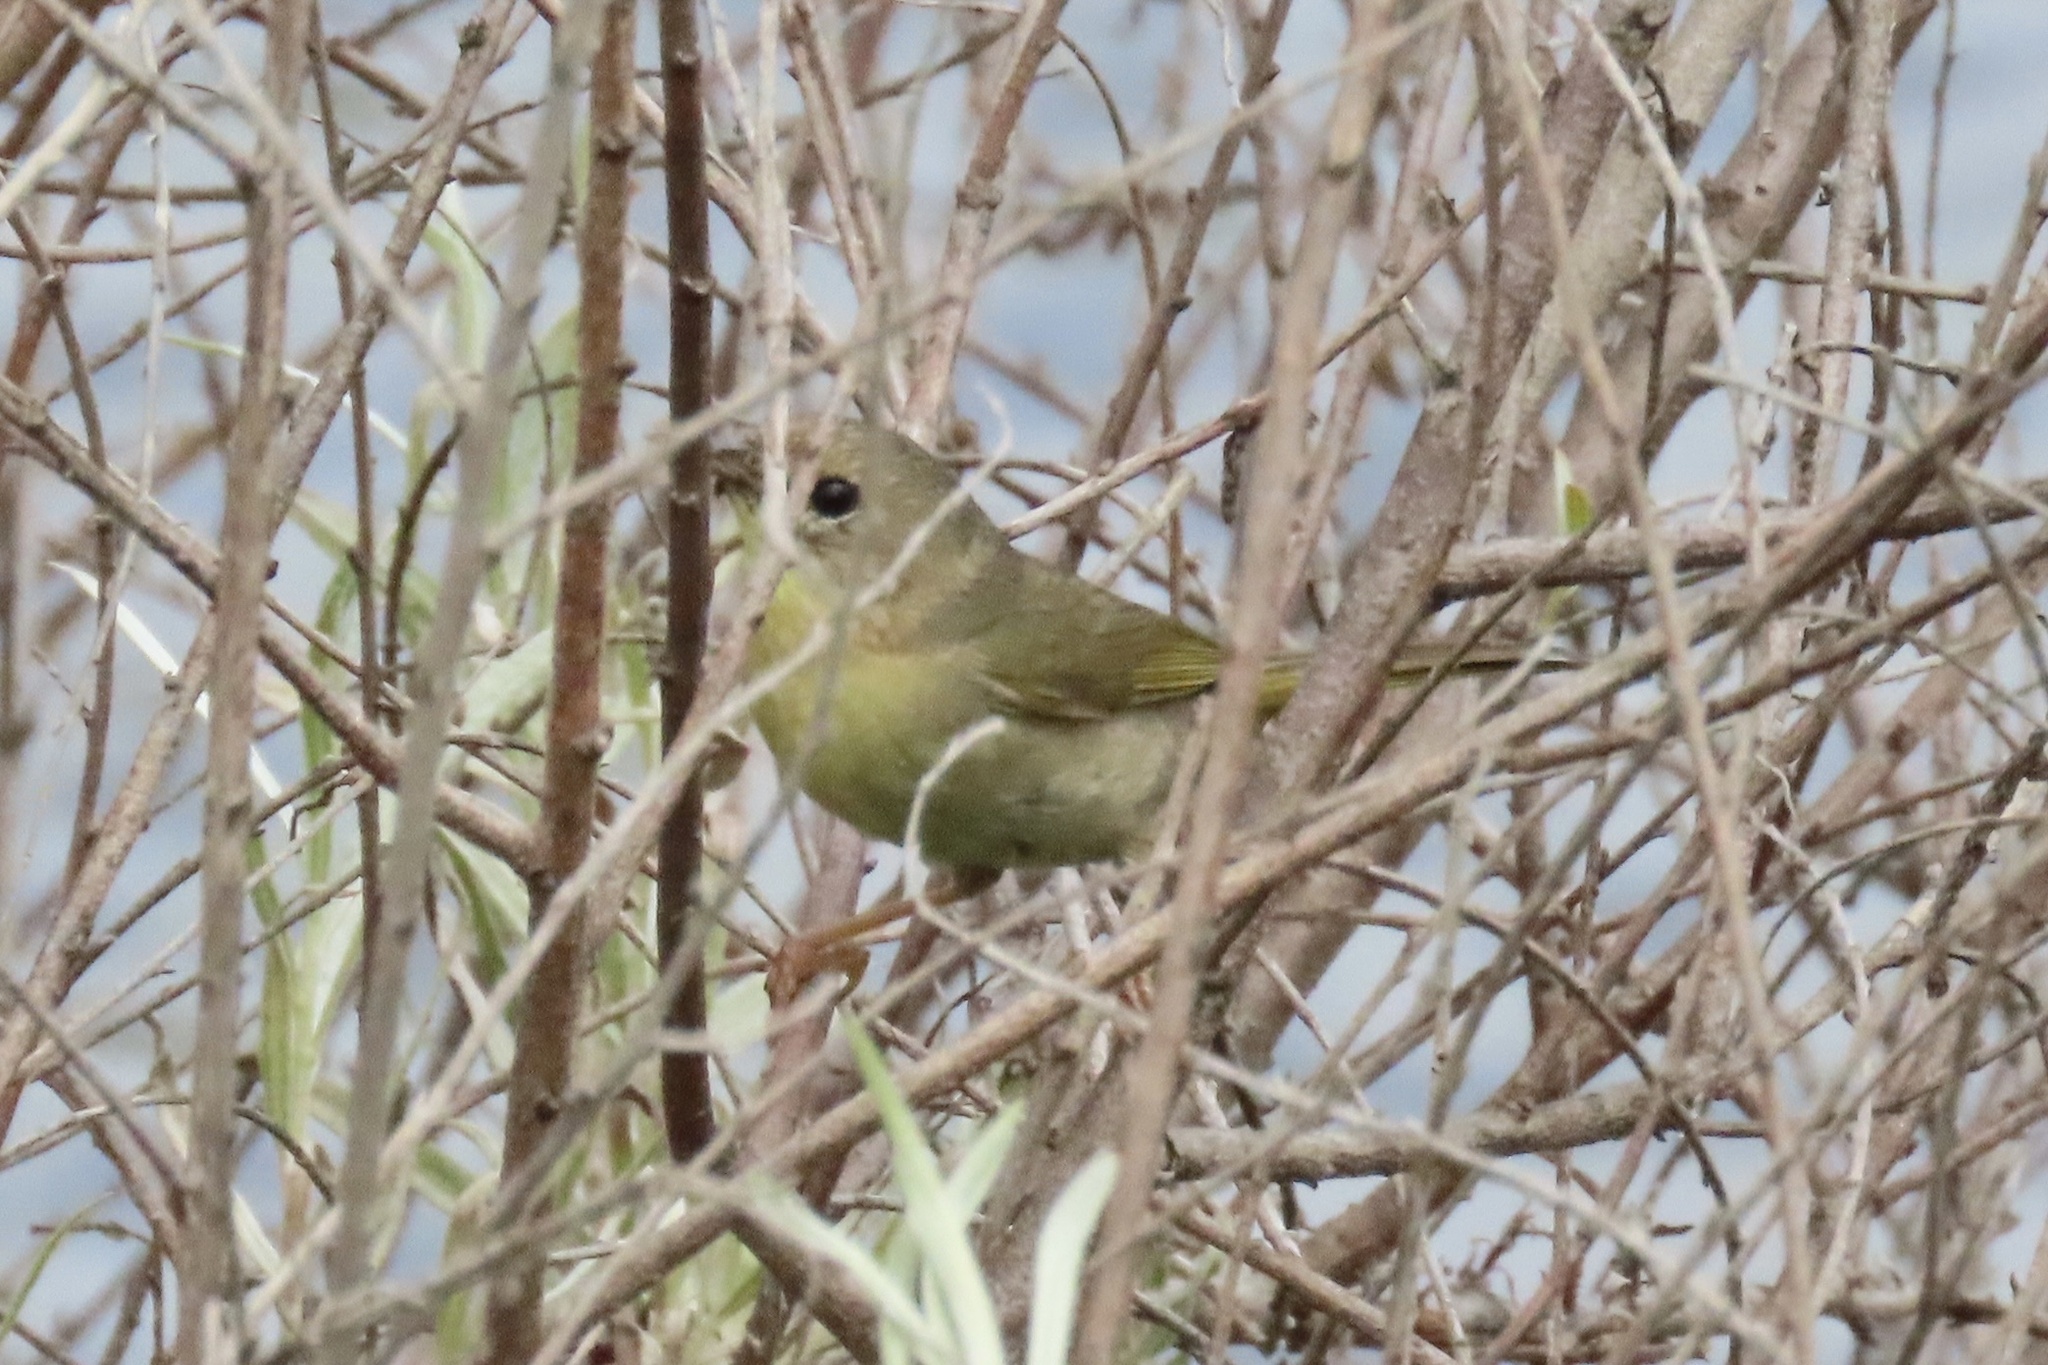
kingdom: Animalia
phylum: Chordata
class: Aves
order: Passeriformes
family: Parulidae
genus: Geothlypis
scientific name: Geothlypis trichas
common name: Common yellowthroat
